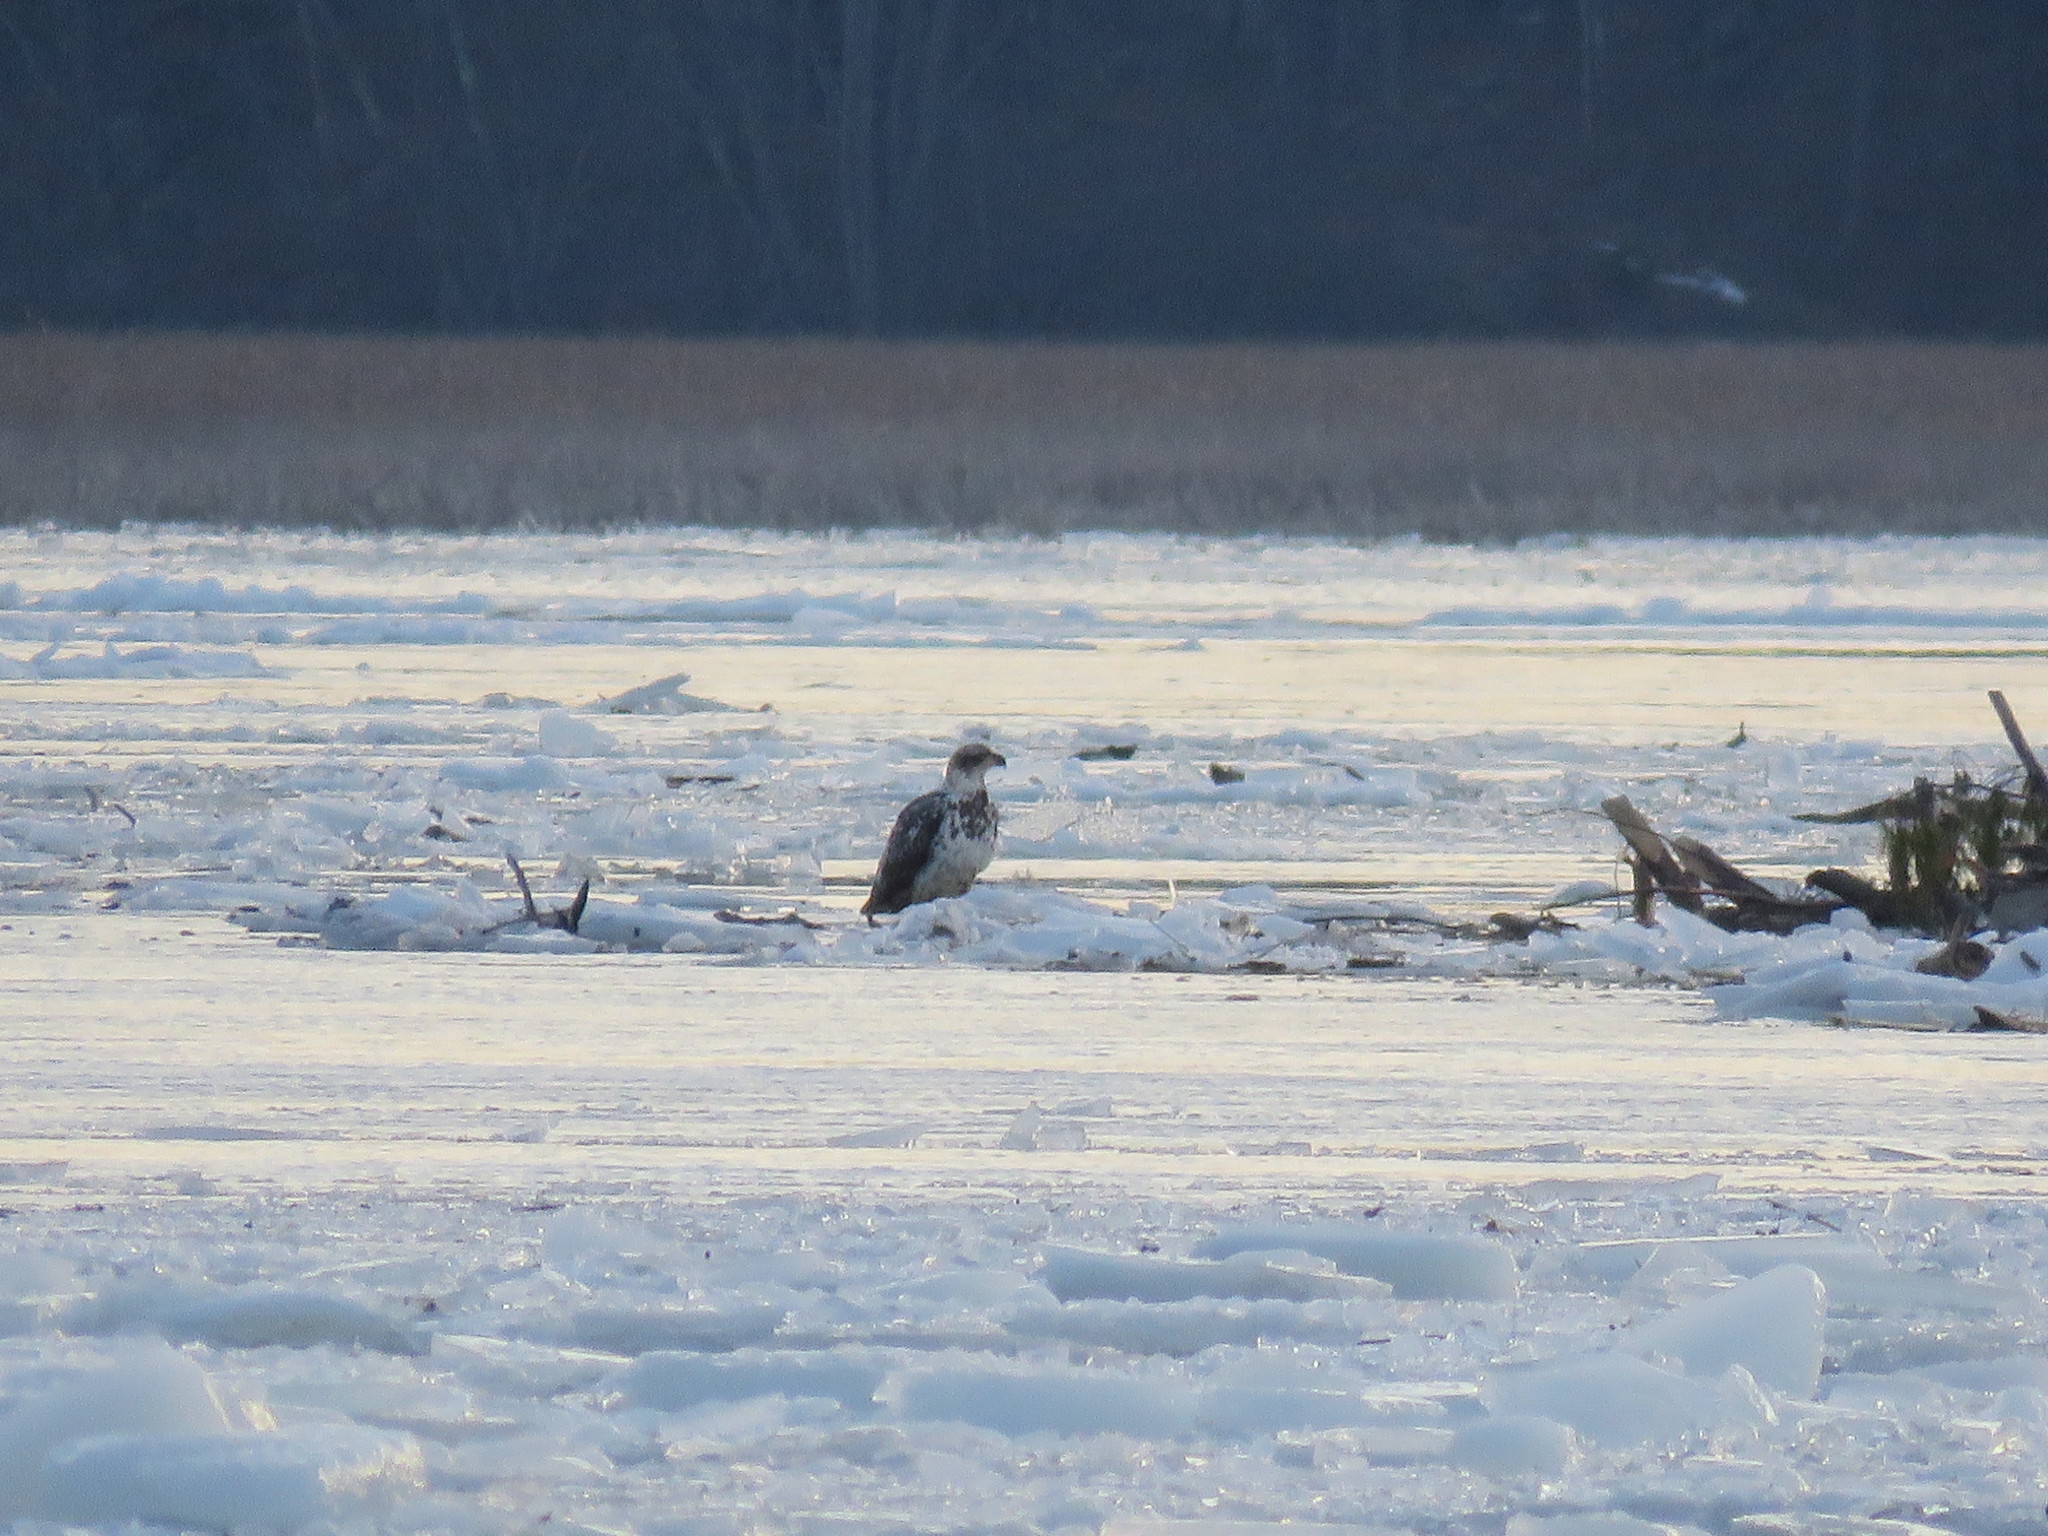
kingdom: Animalia
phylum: Chordata
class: Aves
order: Accipitriformes
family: Accipitridae
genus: Haliaeetus
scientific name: Haliaeetus leucocephalus
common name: Bald eagle
